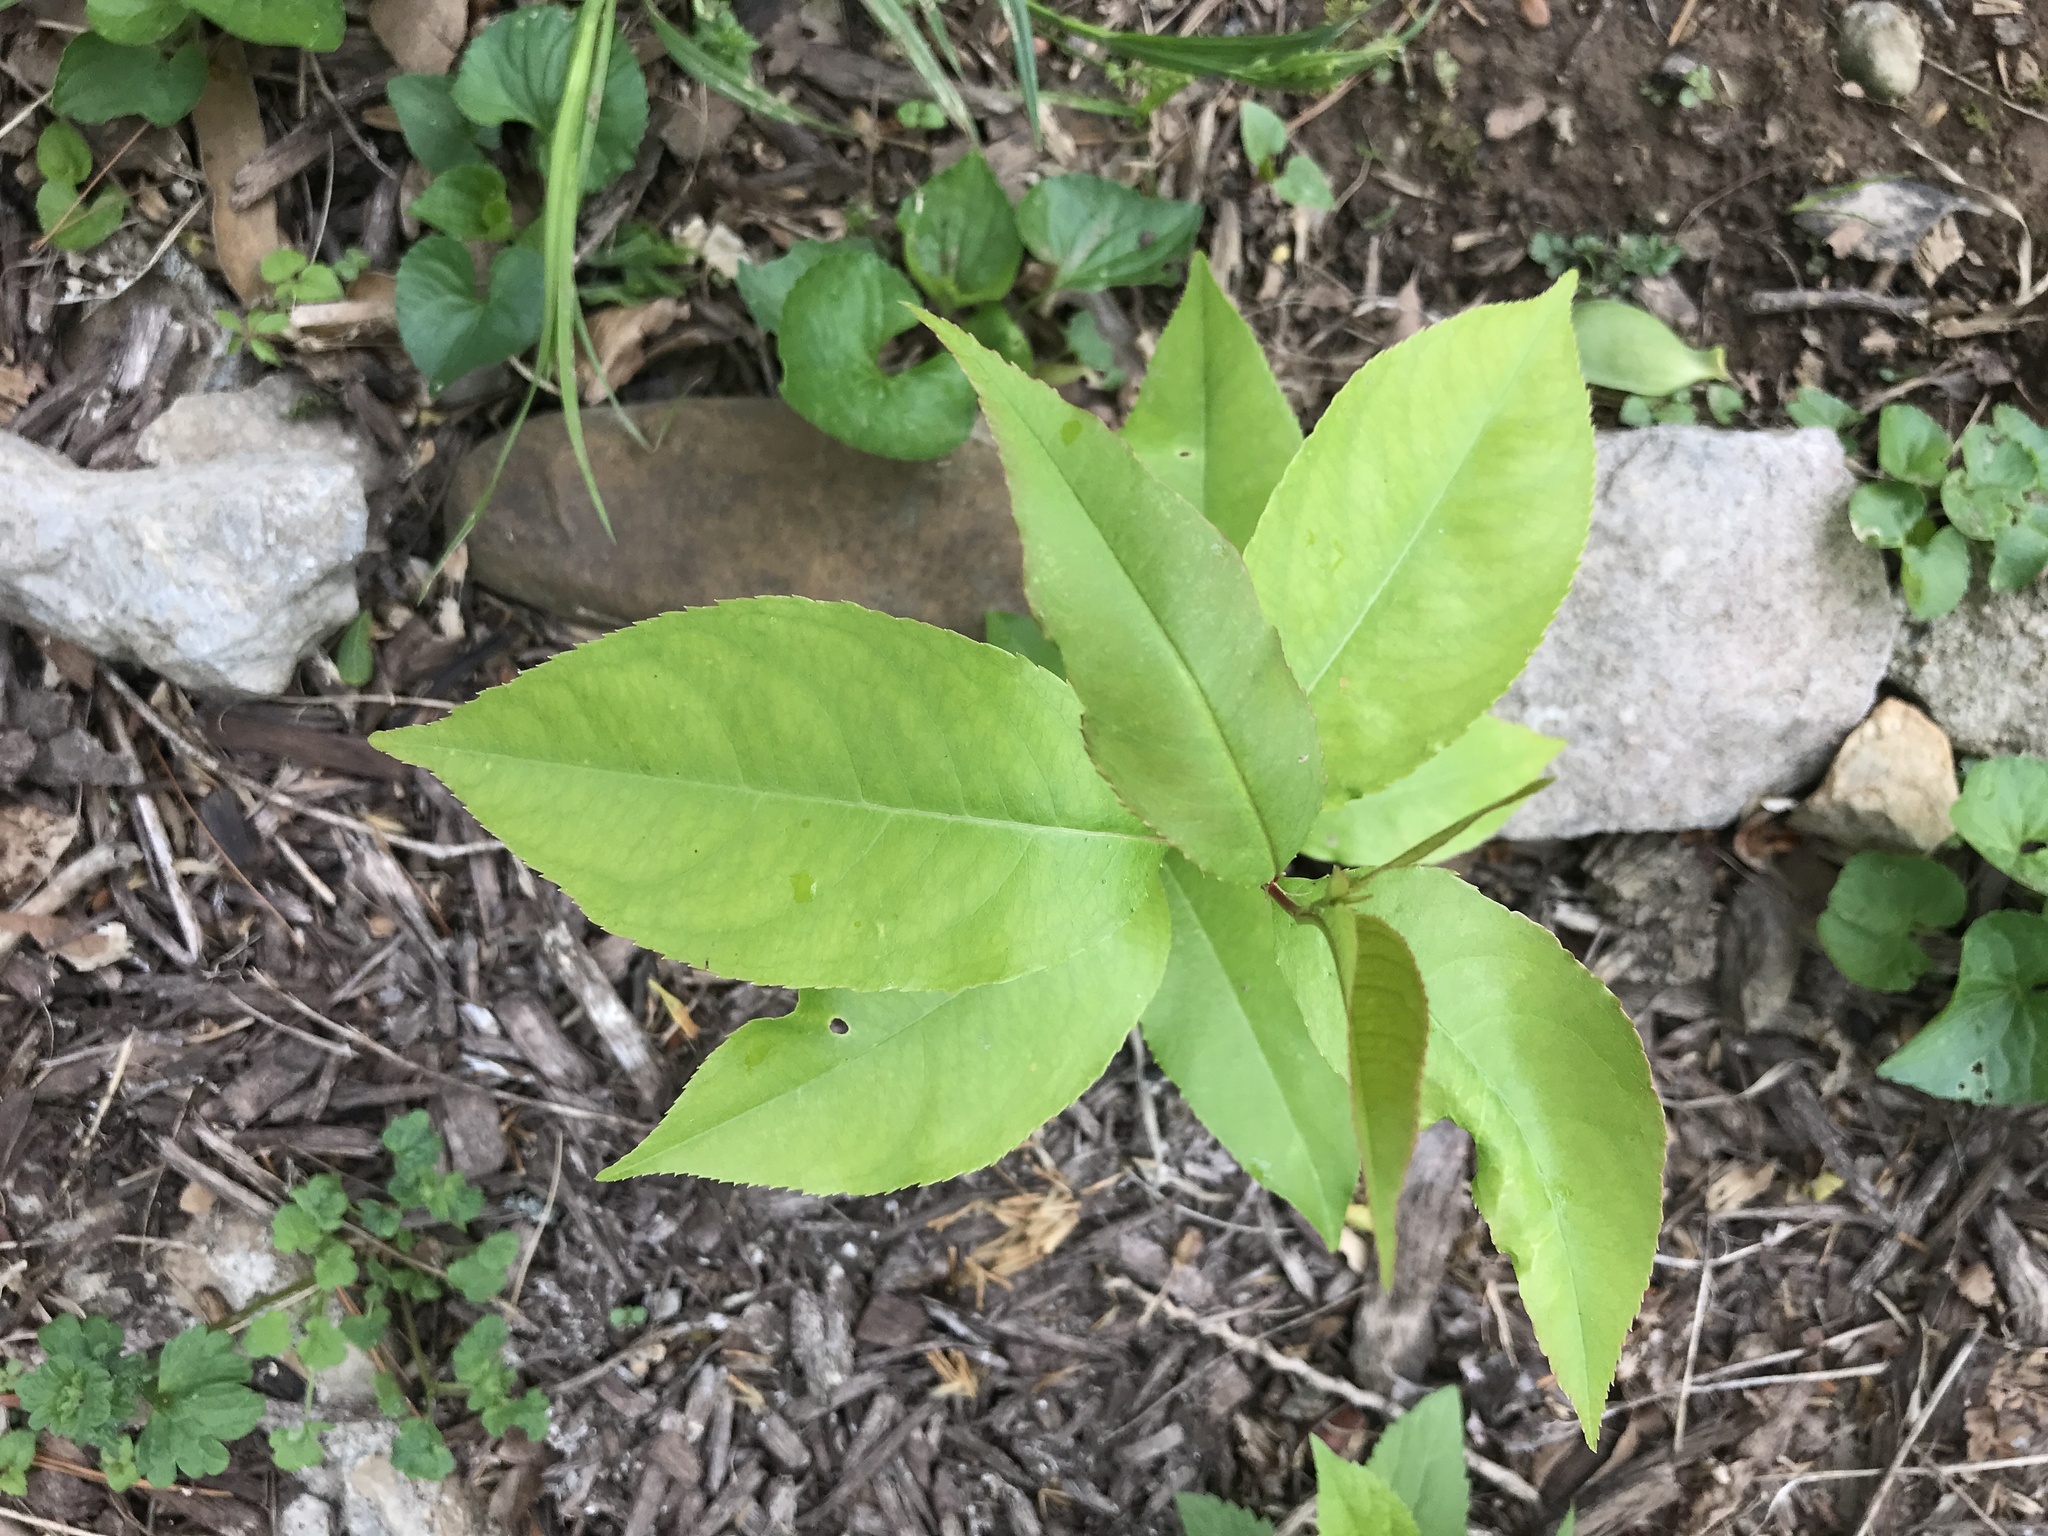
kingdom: Plantae
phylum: Tracheophyta
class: Magnoliopsida
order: Rosales
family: Rosaceae
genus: Prunus
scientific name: Prunus serotina
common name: Black cherry
